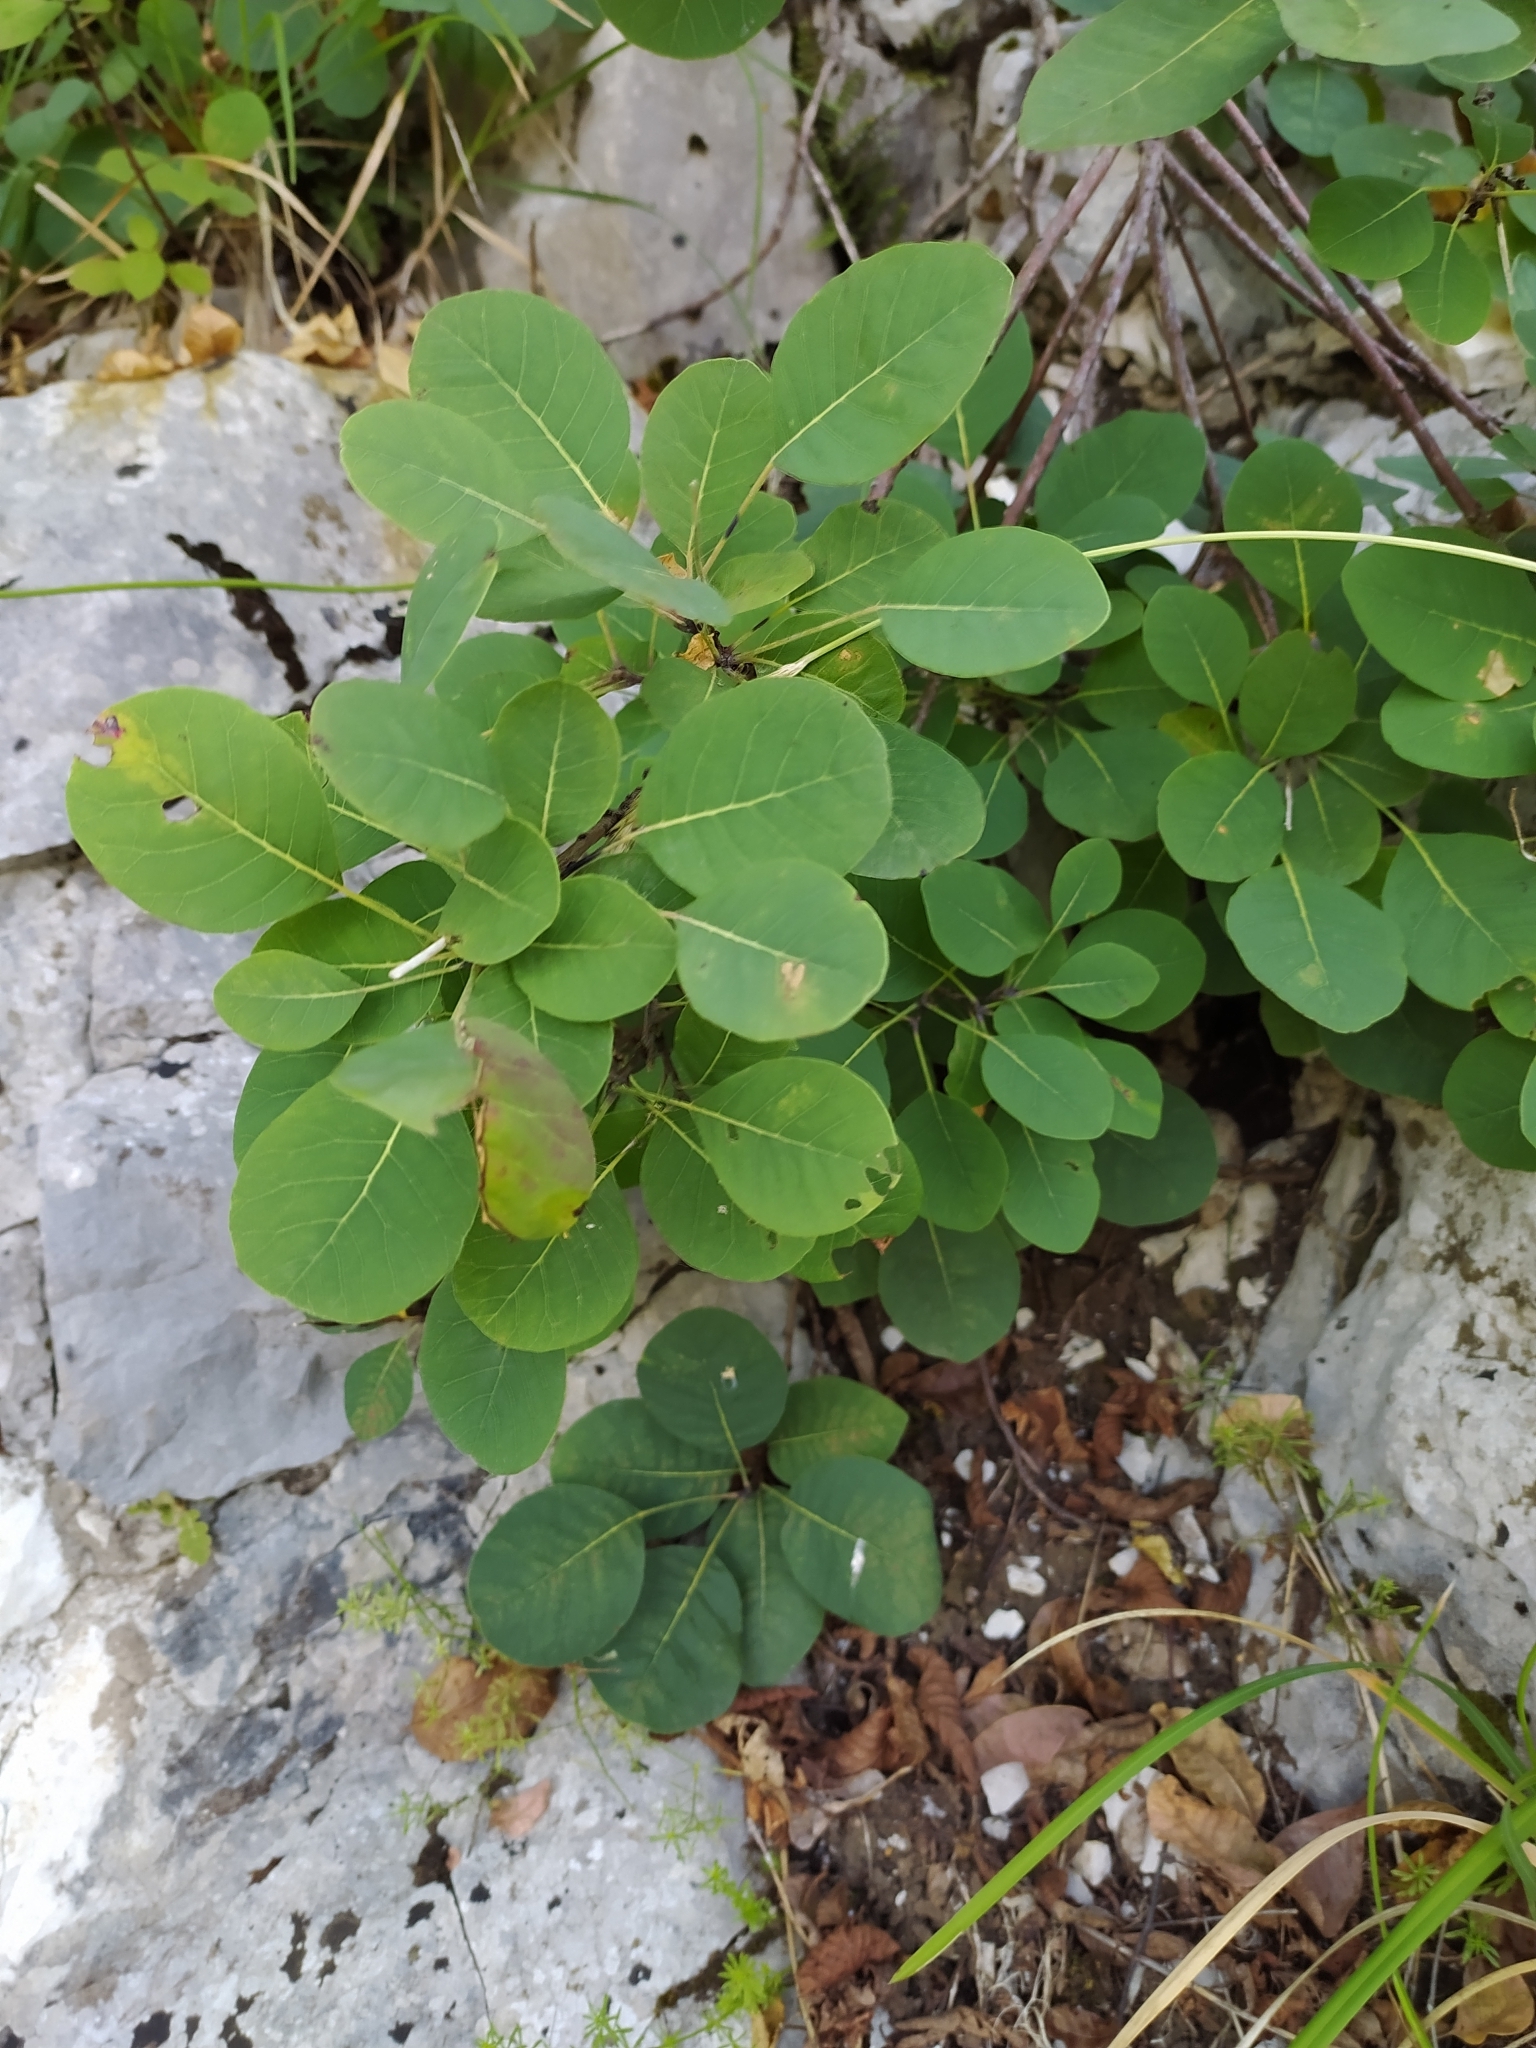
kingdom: Plantae
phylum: Tracheophyta
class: Magnoliopsida
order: Sapindales
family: Anacardiaceae
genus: Cotinus
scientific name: Cotinus coggygria
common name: Smoke-tree
